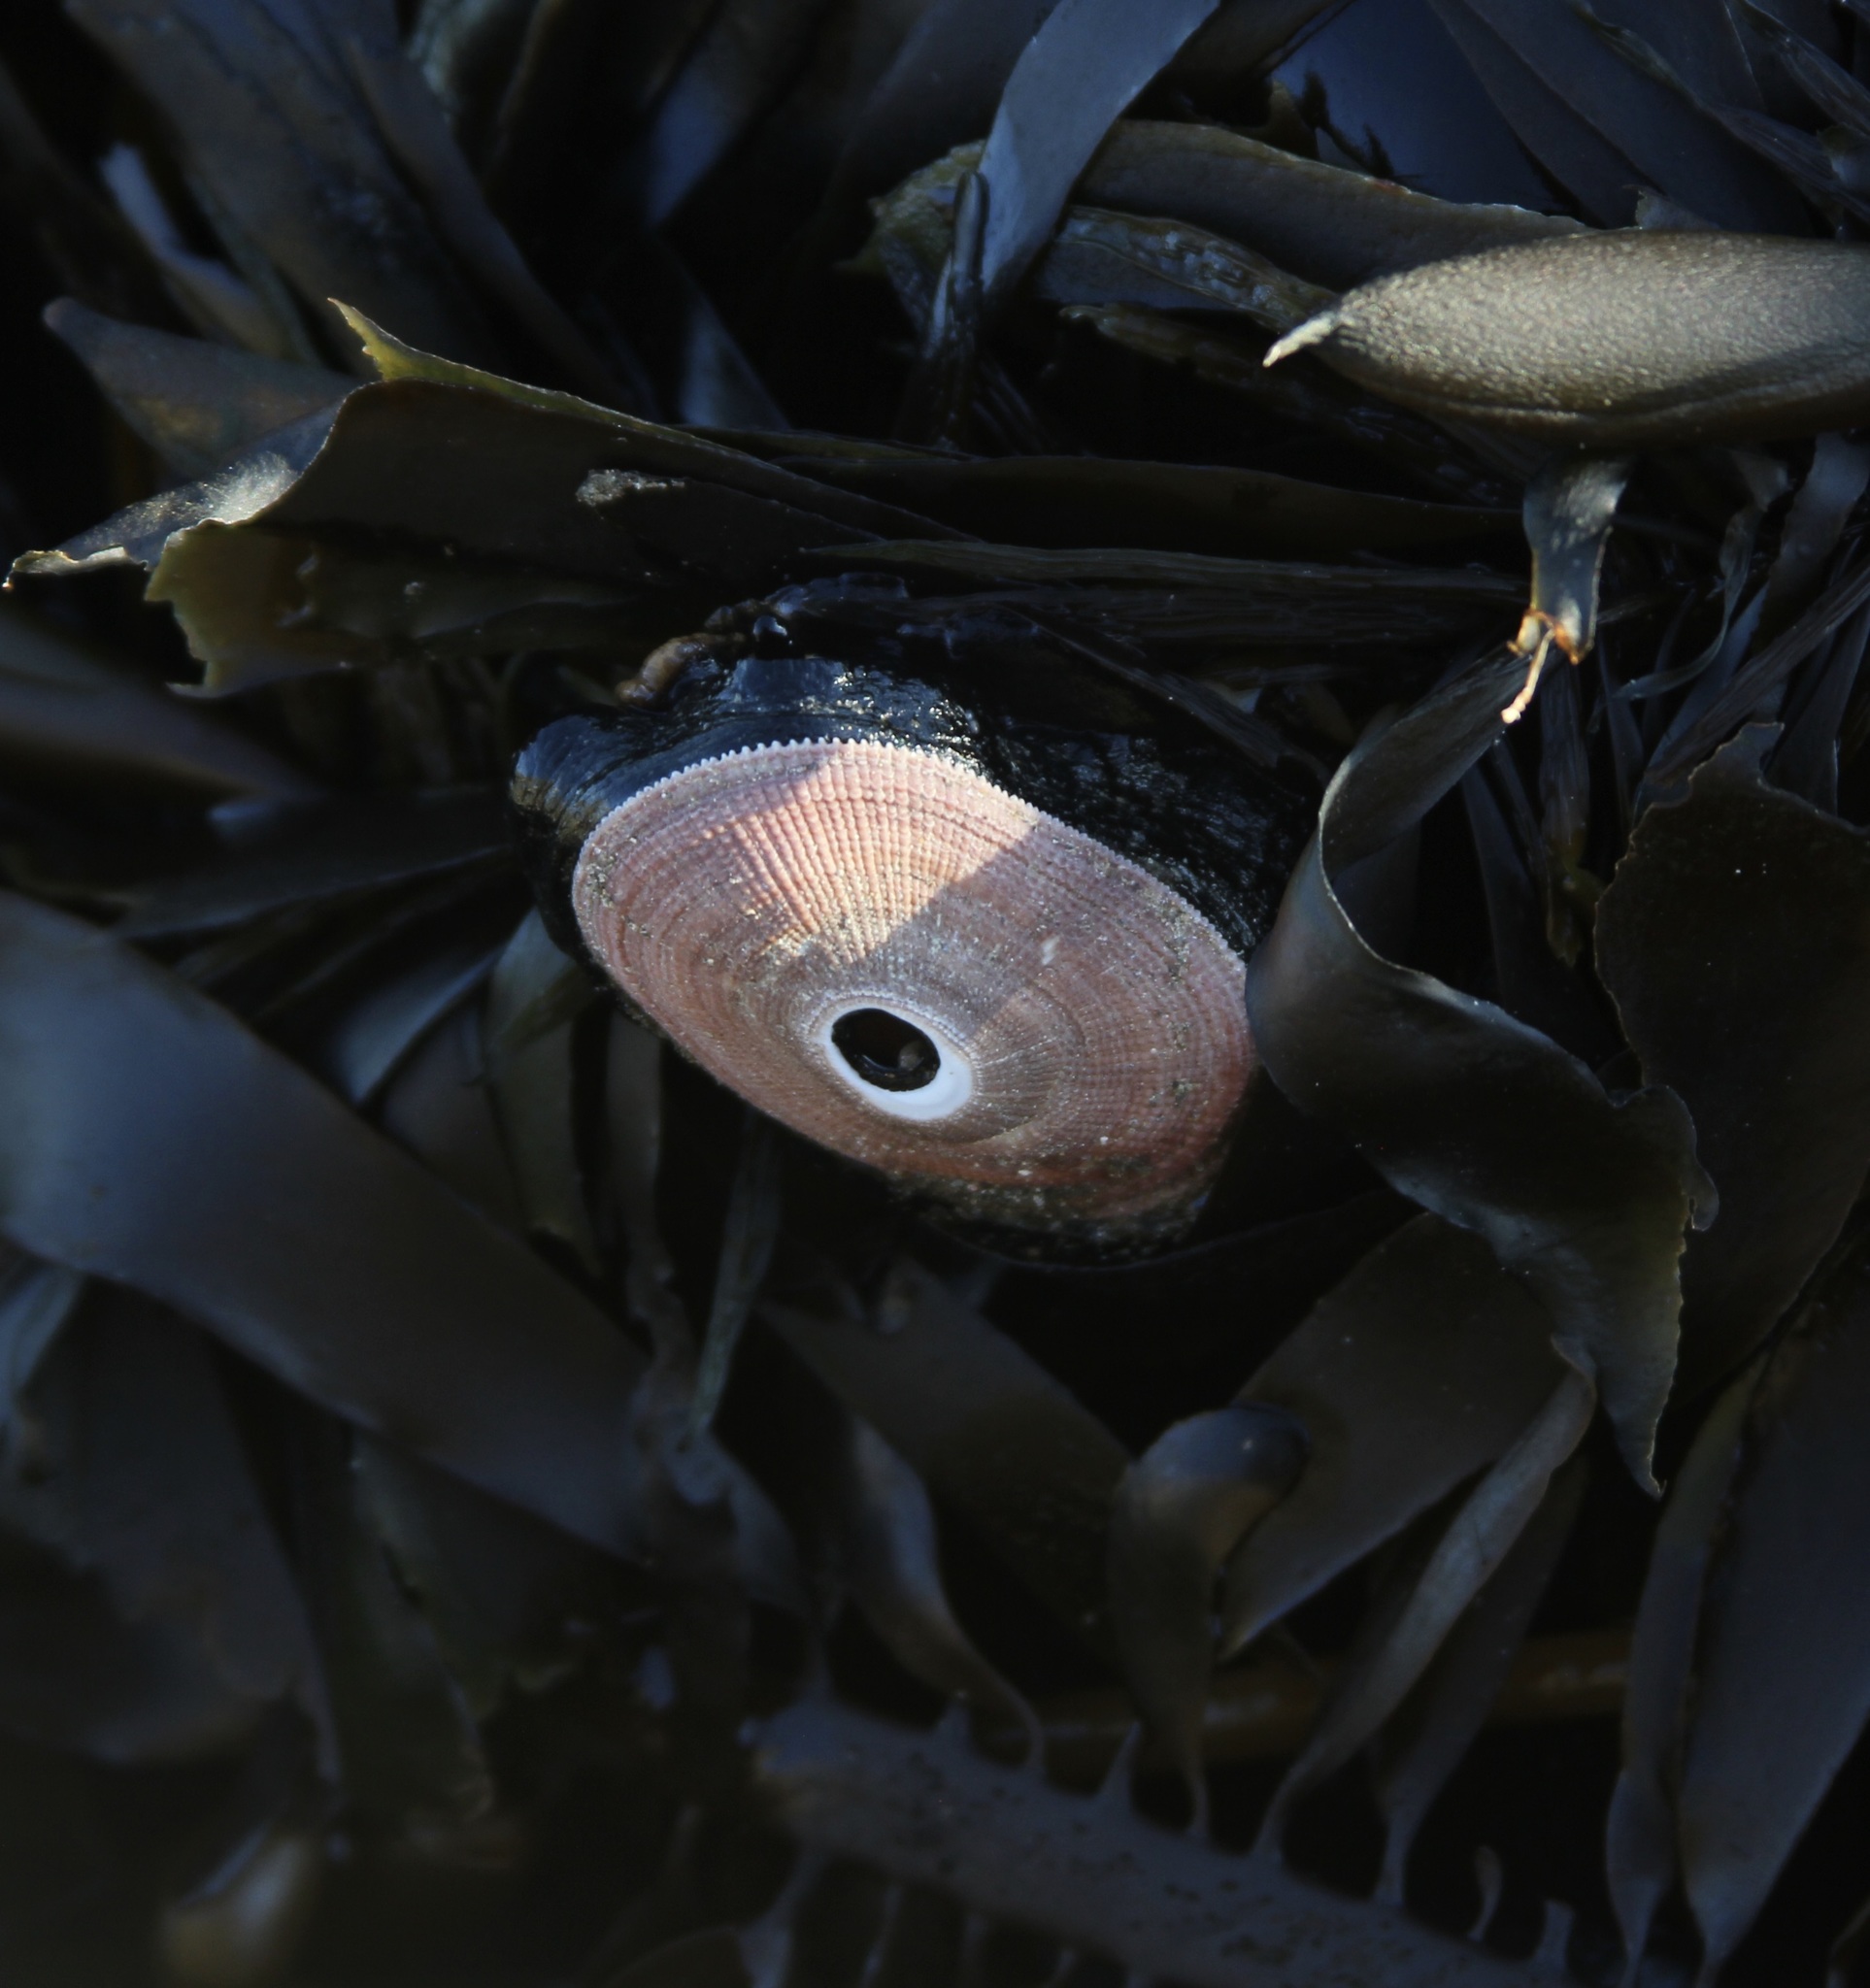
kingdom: Animalia
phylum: Mollusca
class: Gastropoda
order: Lepetellida
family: Fissurellidae
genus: Megathura
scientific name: Megathura crenulata
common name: Giant keyhole limpet
